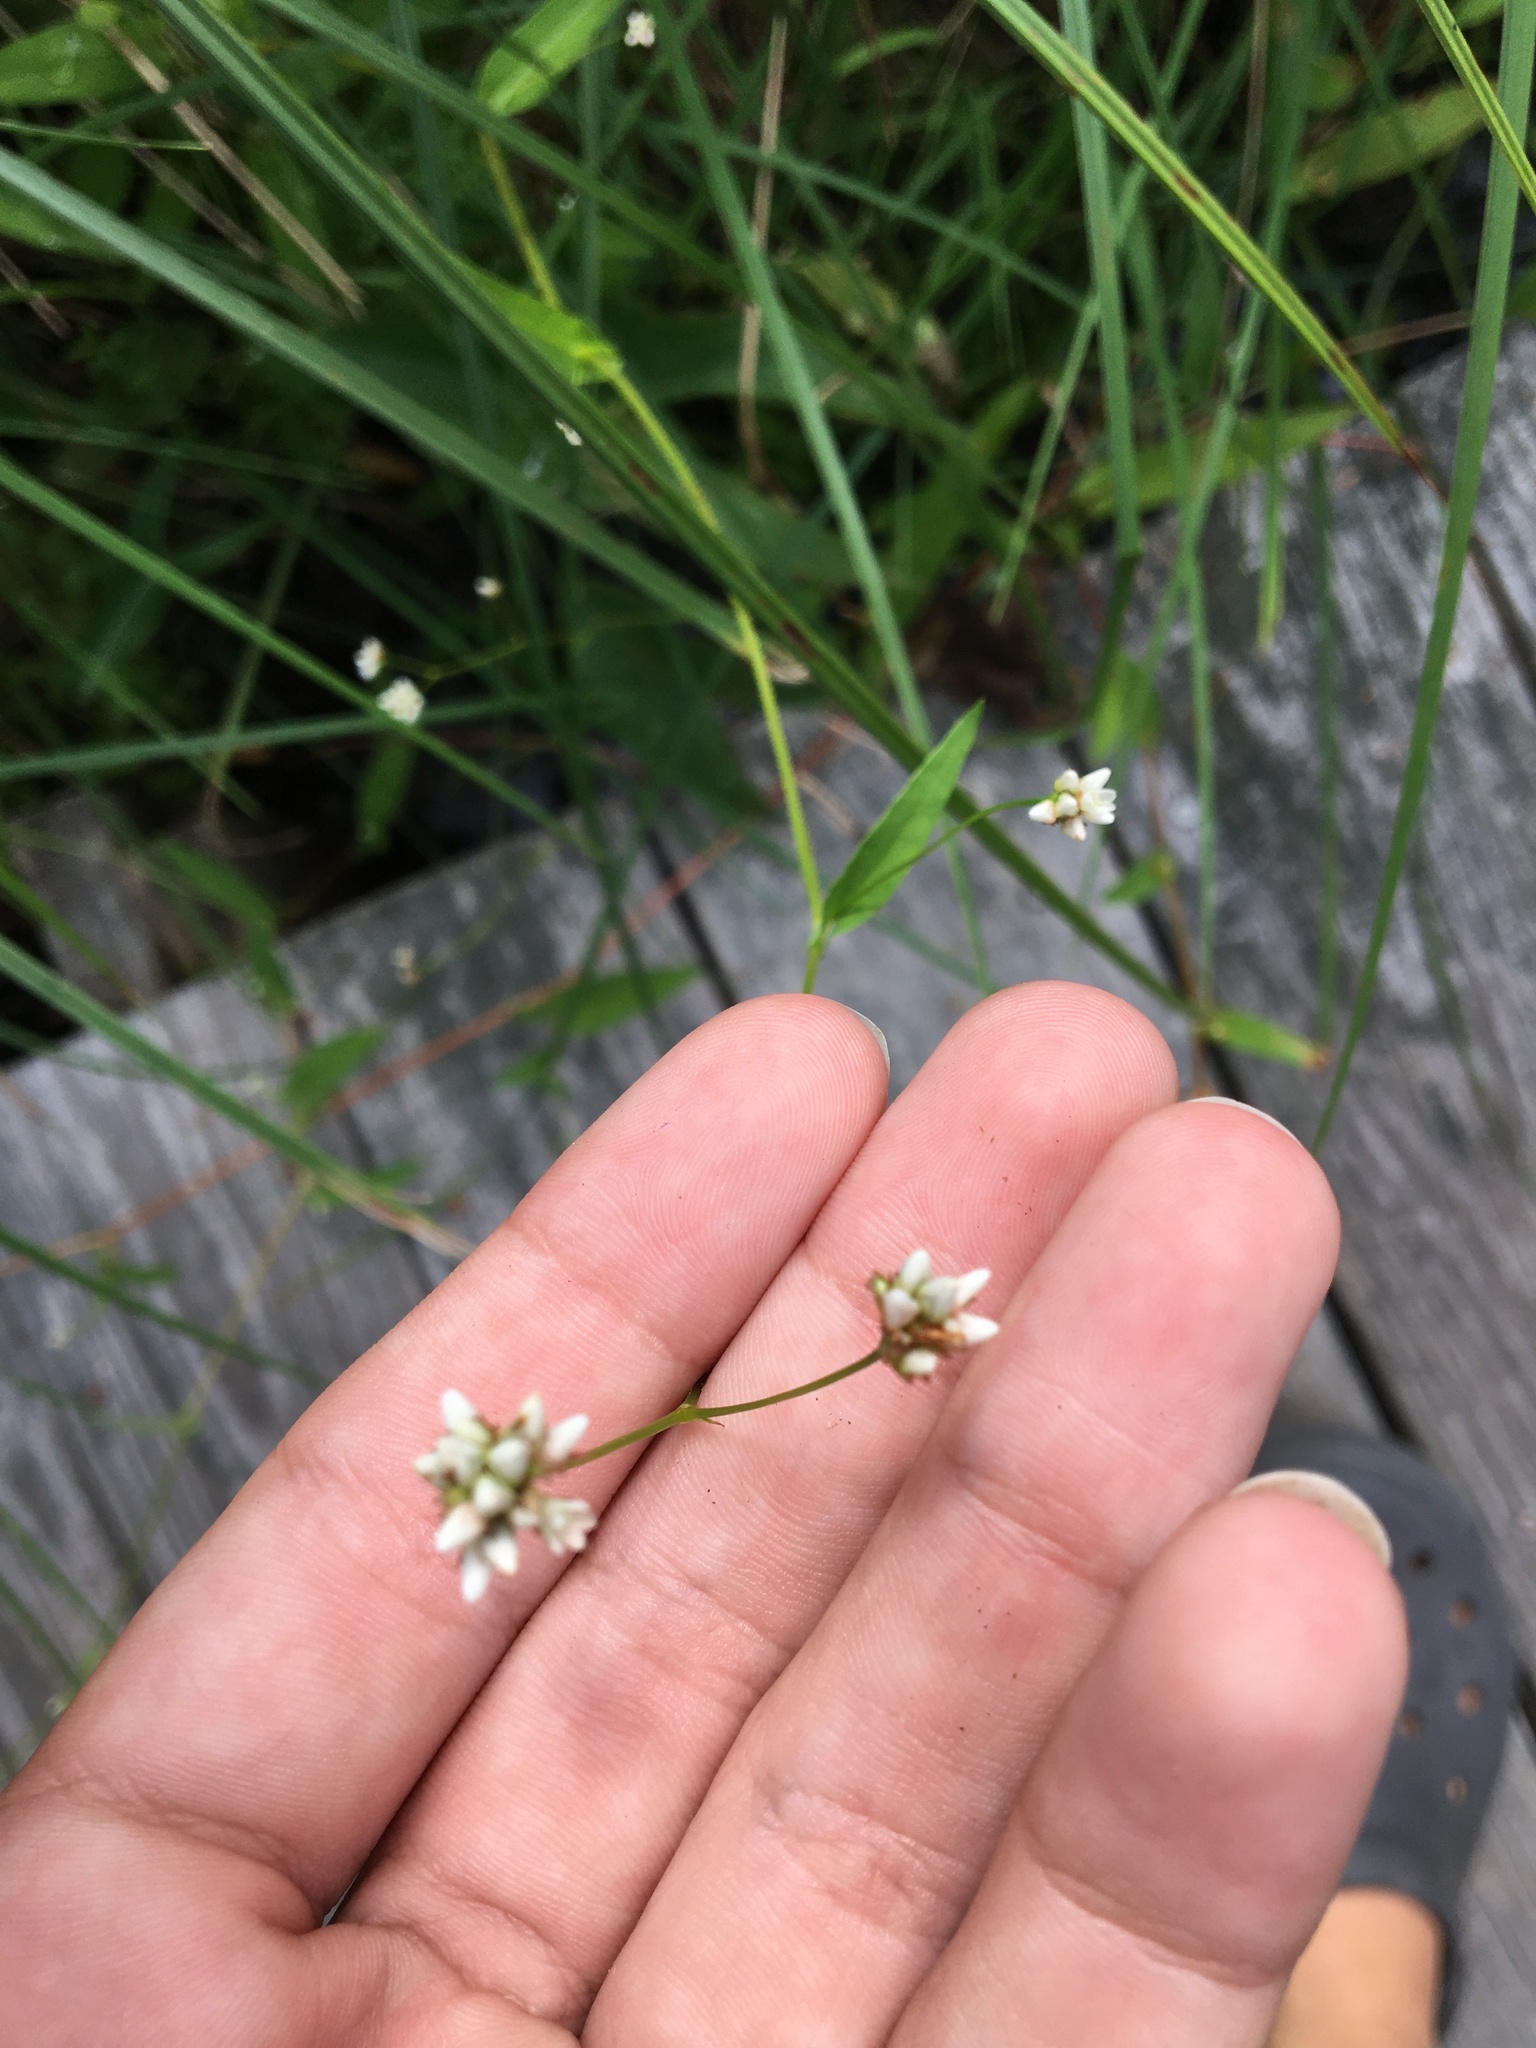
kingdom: Plantae
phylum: Tracheophyta
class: Magnoliopsida
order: Caryophyllales
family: Polygonaceae
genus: Persicaria
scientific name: Persicaria sagittata
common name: American tearthumb
